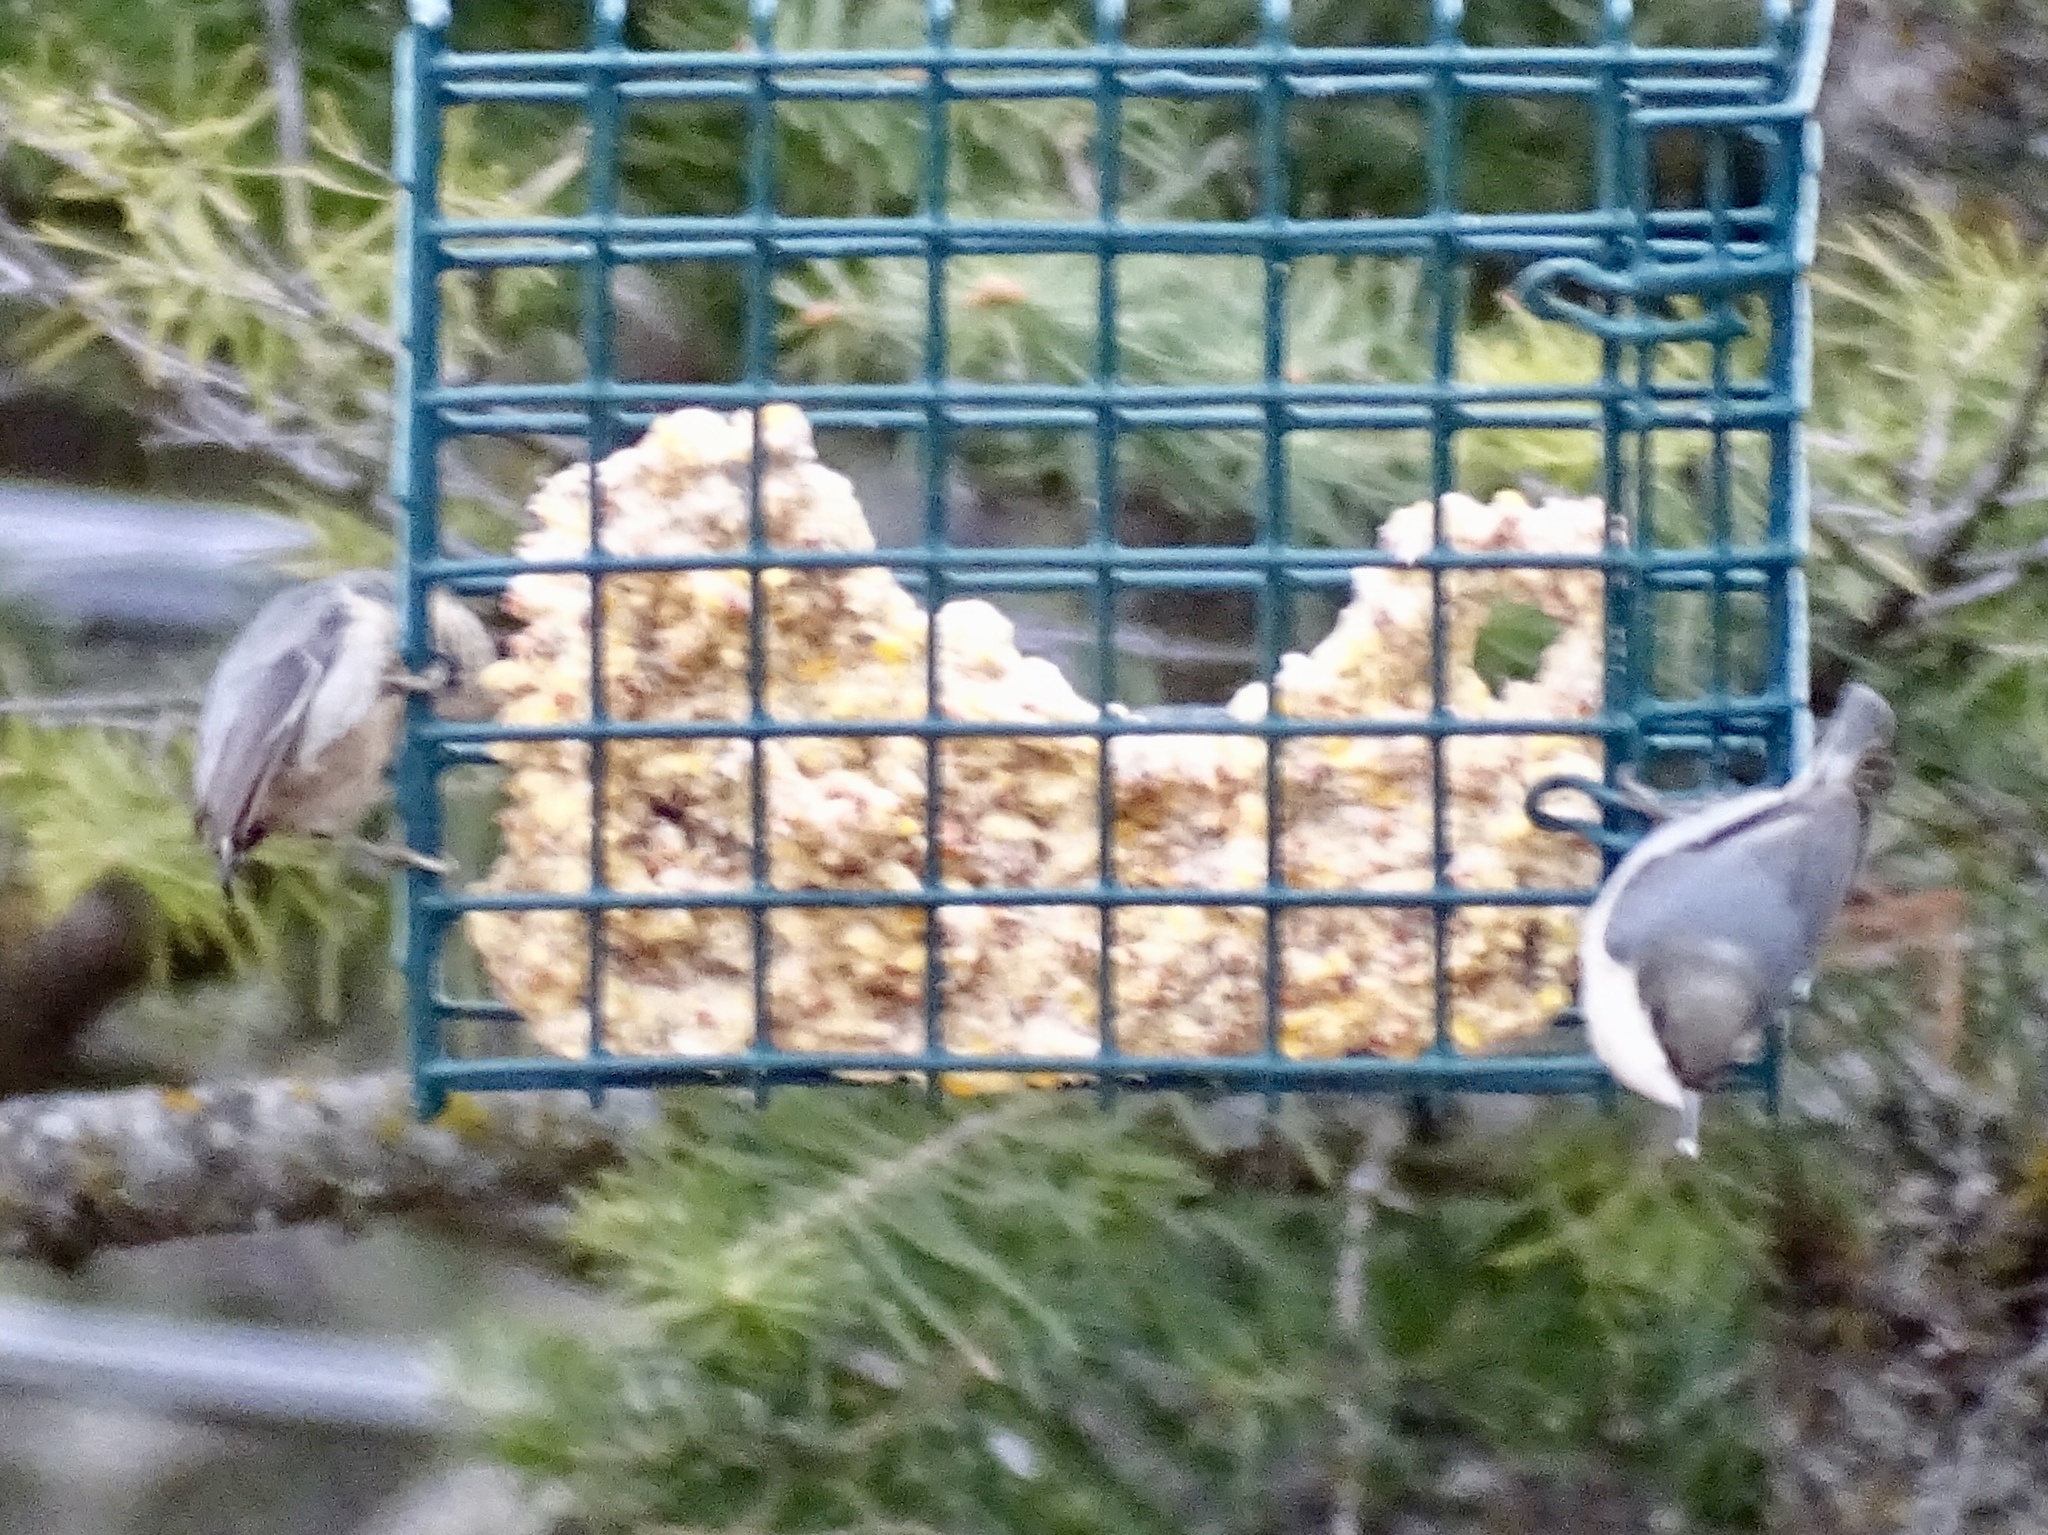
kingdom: Animalia
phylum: Chordata
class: Aves
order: Passeriformes
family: Sittidae
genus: Sitta
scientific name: Sitta pygmaea
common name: Pygmy nuthatch
